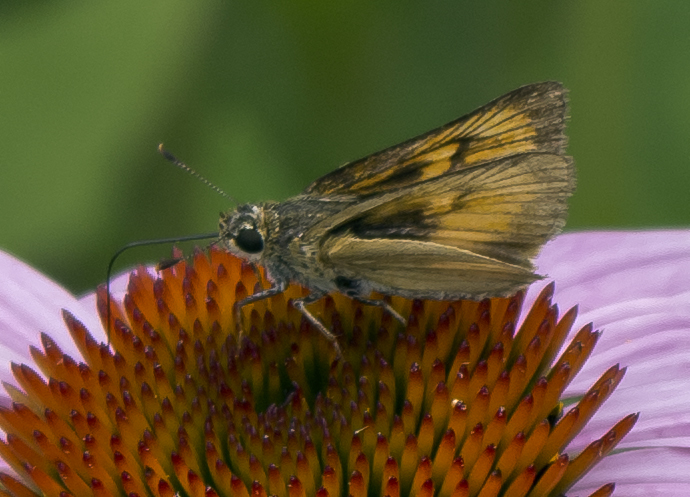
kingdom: Animalia
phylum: Arthropoda
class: Insecta
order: Lepidoptera
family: Hesperiidae
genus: Atrytone
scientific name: Atrytone delaware
